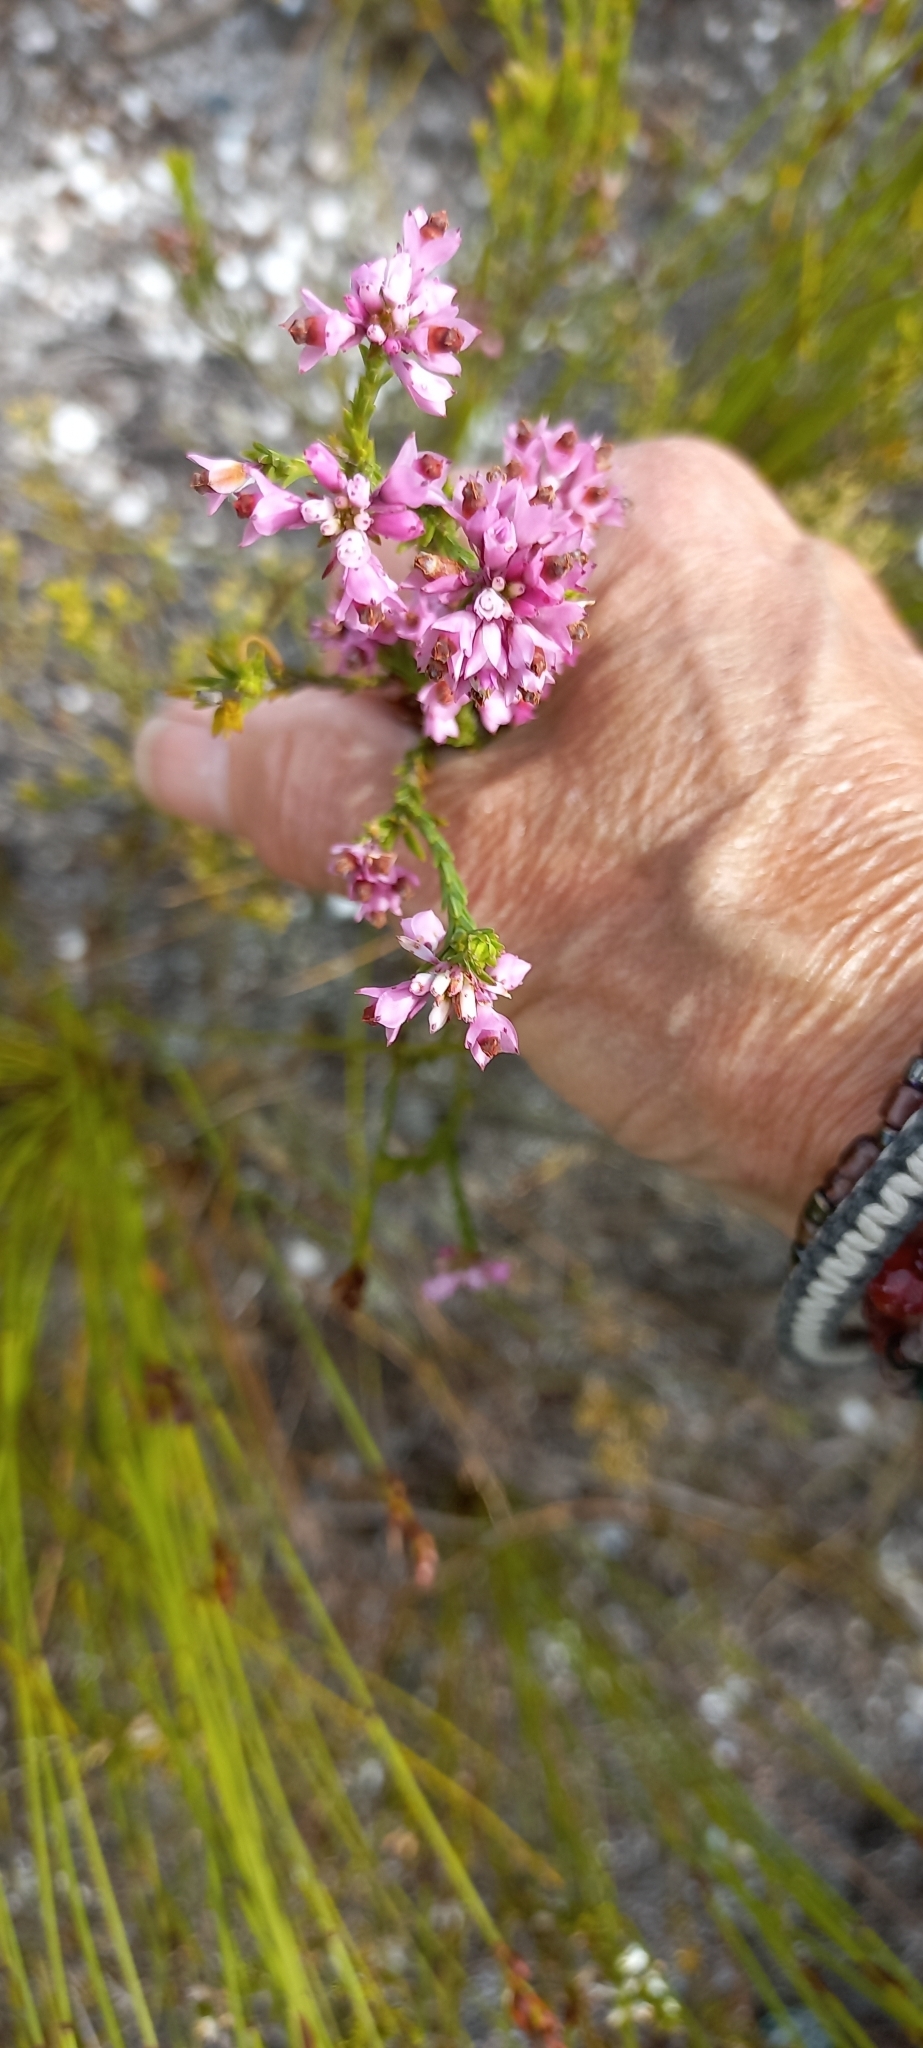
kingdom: Plantae
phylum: Tracheophyta
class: Magnoliopsida
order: Ericales
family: Ericaceae
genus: Erica
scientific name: Erica corifolia
